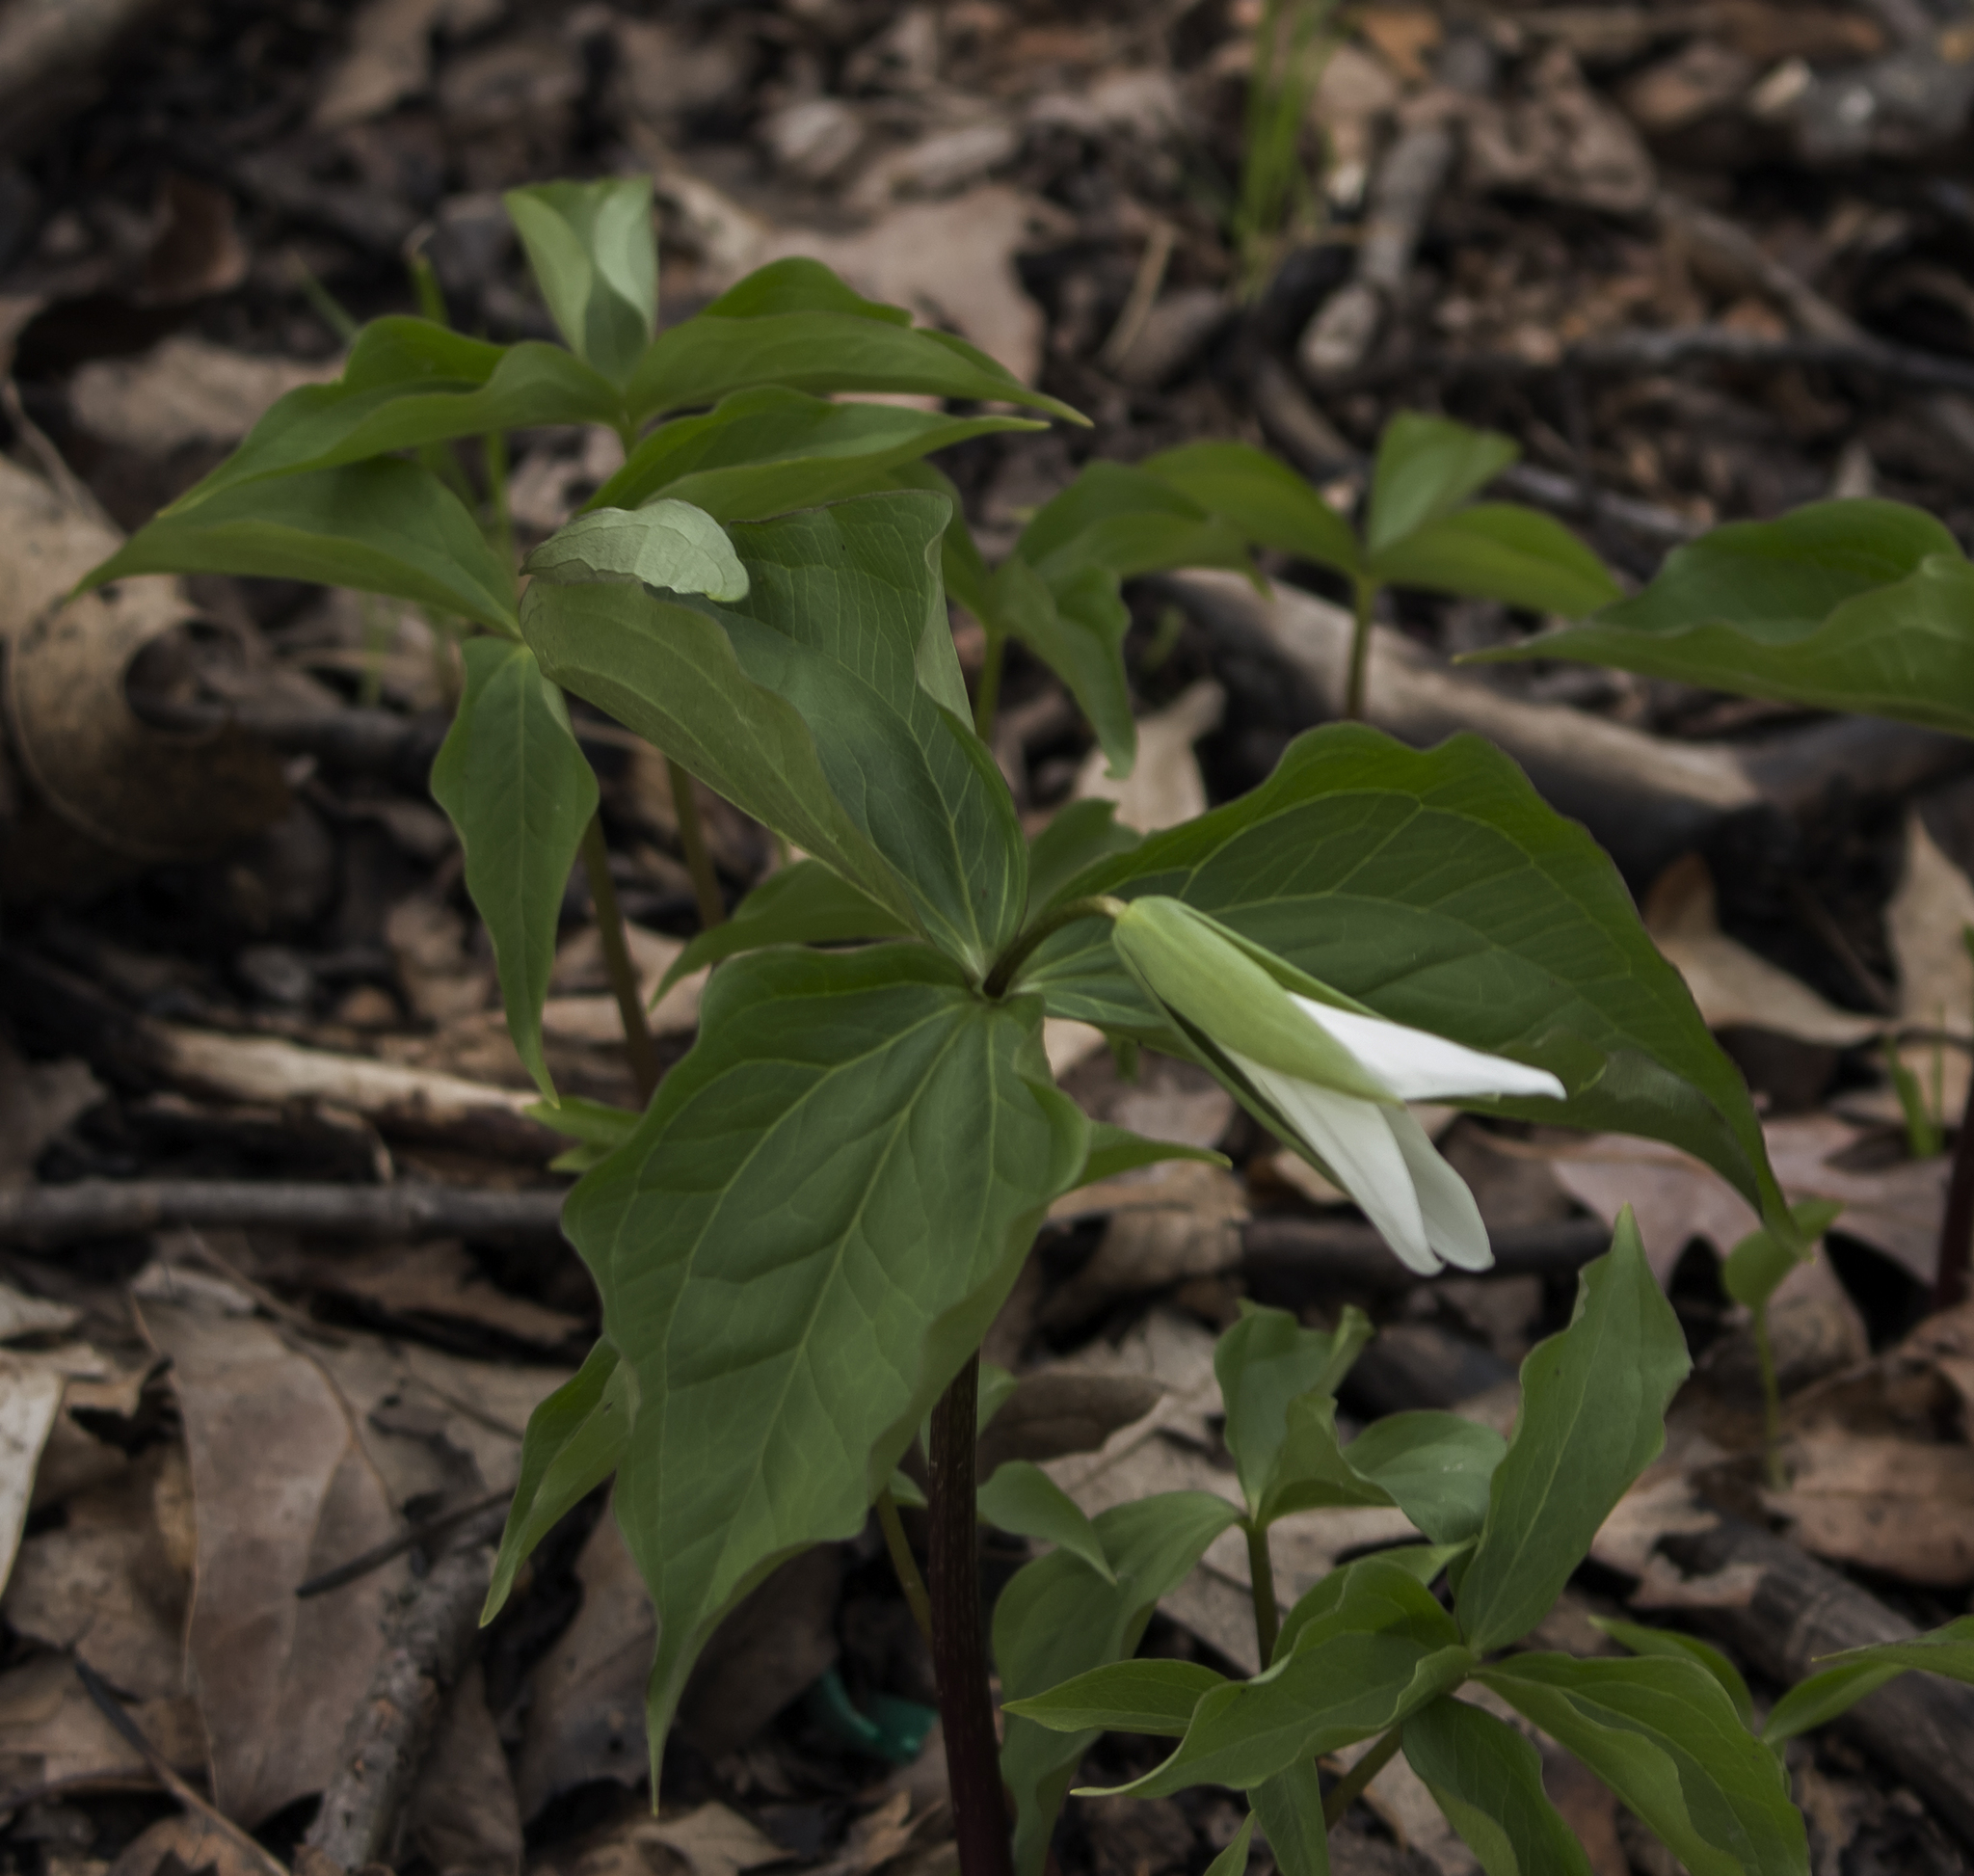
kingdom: Plantae
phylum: Tracheophyta
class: Liliopsida
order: Liliales
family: Melanthiaceae
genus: Trillium
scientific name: Trillium grandiflorum
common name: Great white trillium
